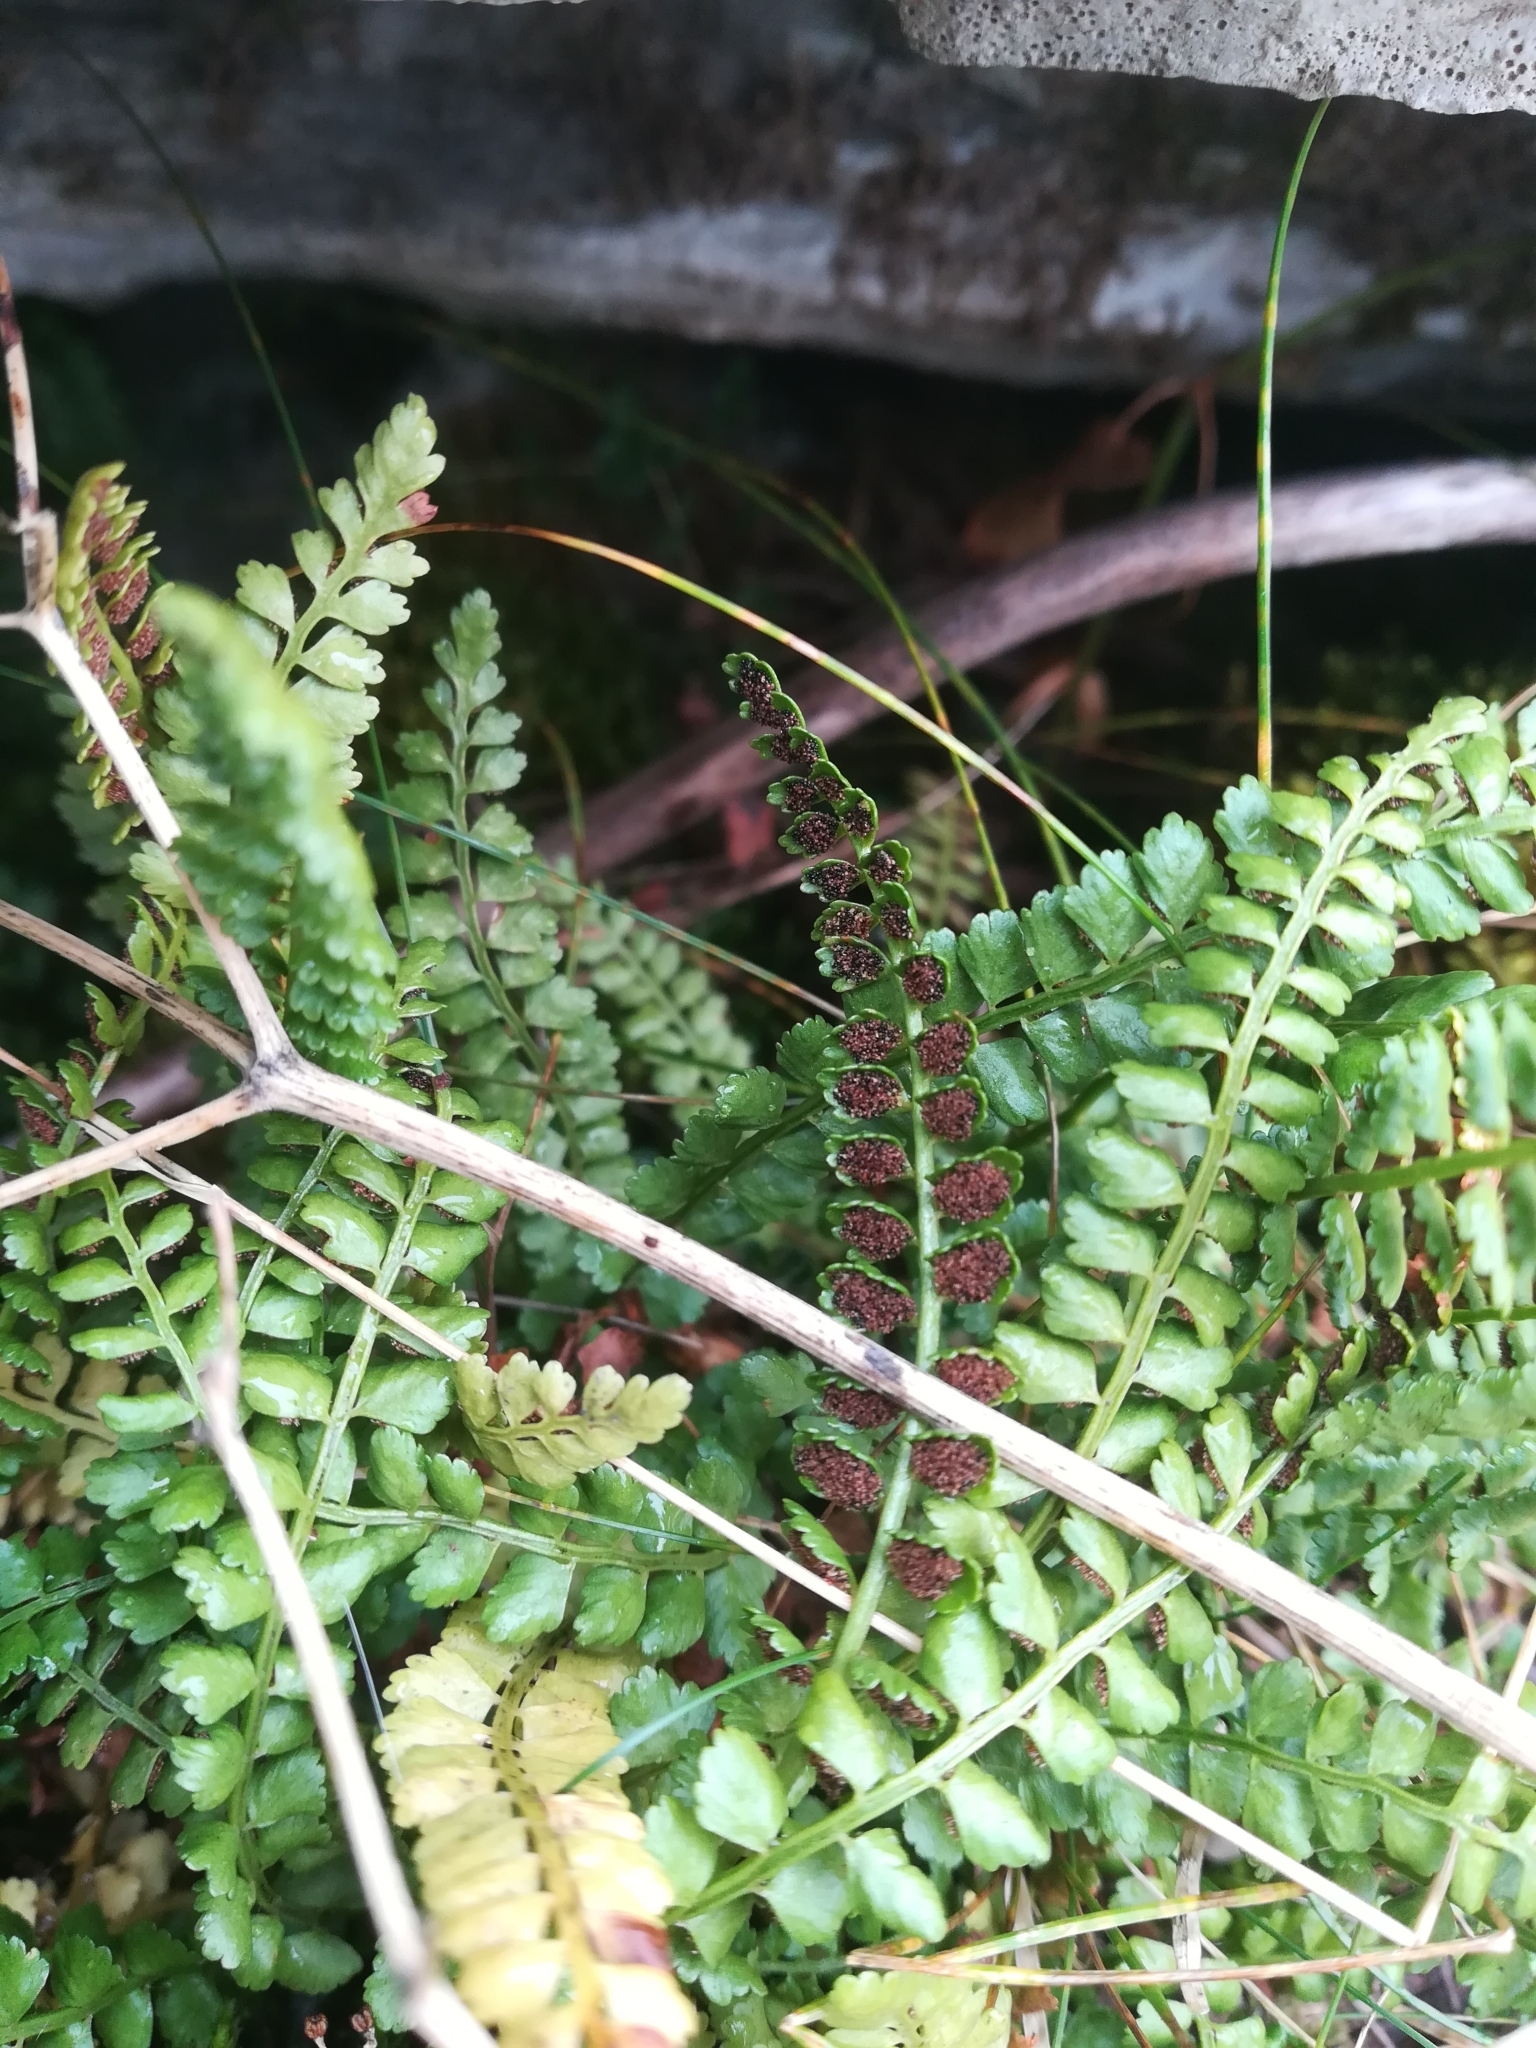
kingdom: Plantae
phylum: Tracheophyta
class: Polypodiopsida
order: Polypodiales
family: Aspleniaceae
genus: Asplenium
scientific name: Asplenium viride
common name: Green spleenwort
